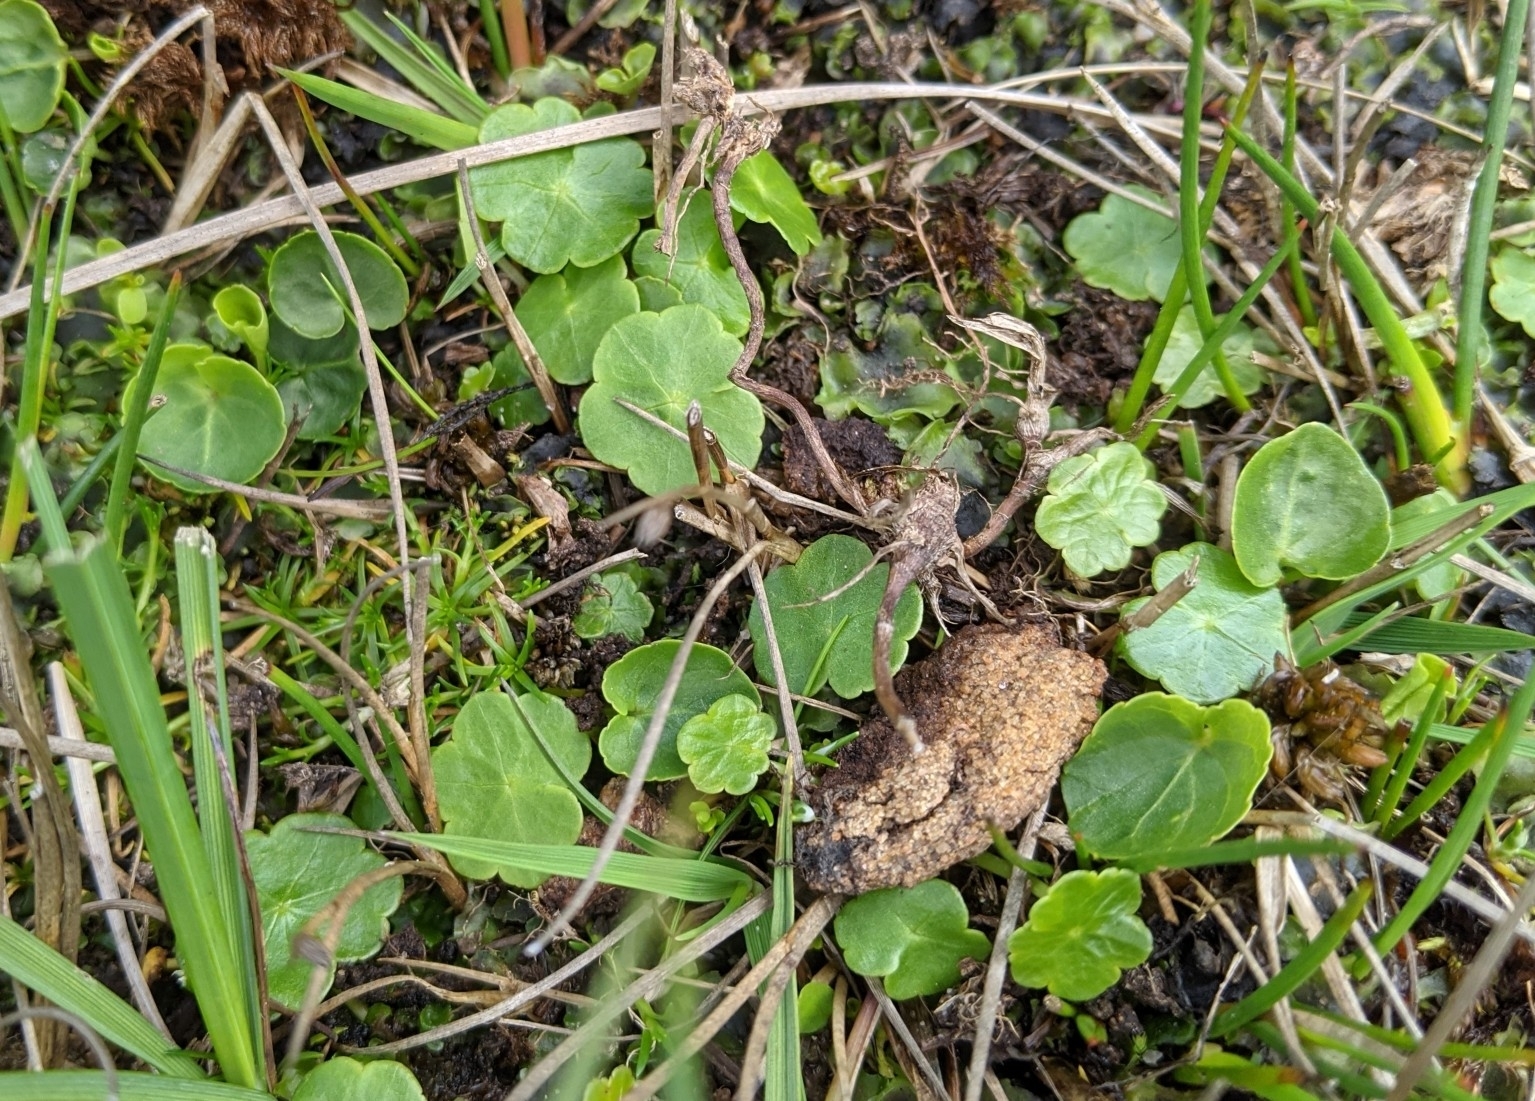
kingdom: Plantae
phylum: Tracheophyta
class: Magnoliopsida
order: Apiales
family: Araliaceae
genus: Hydrocotyle
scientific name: Hydrocotyle vulgaris
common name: Marsh pennywort
